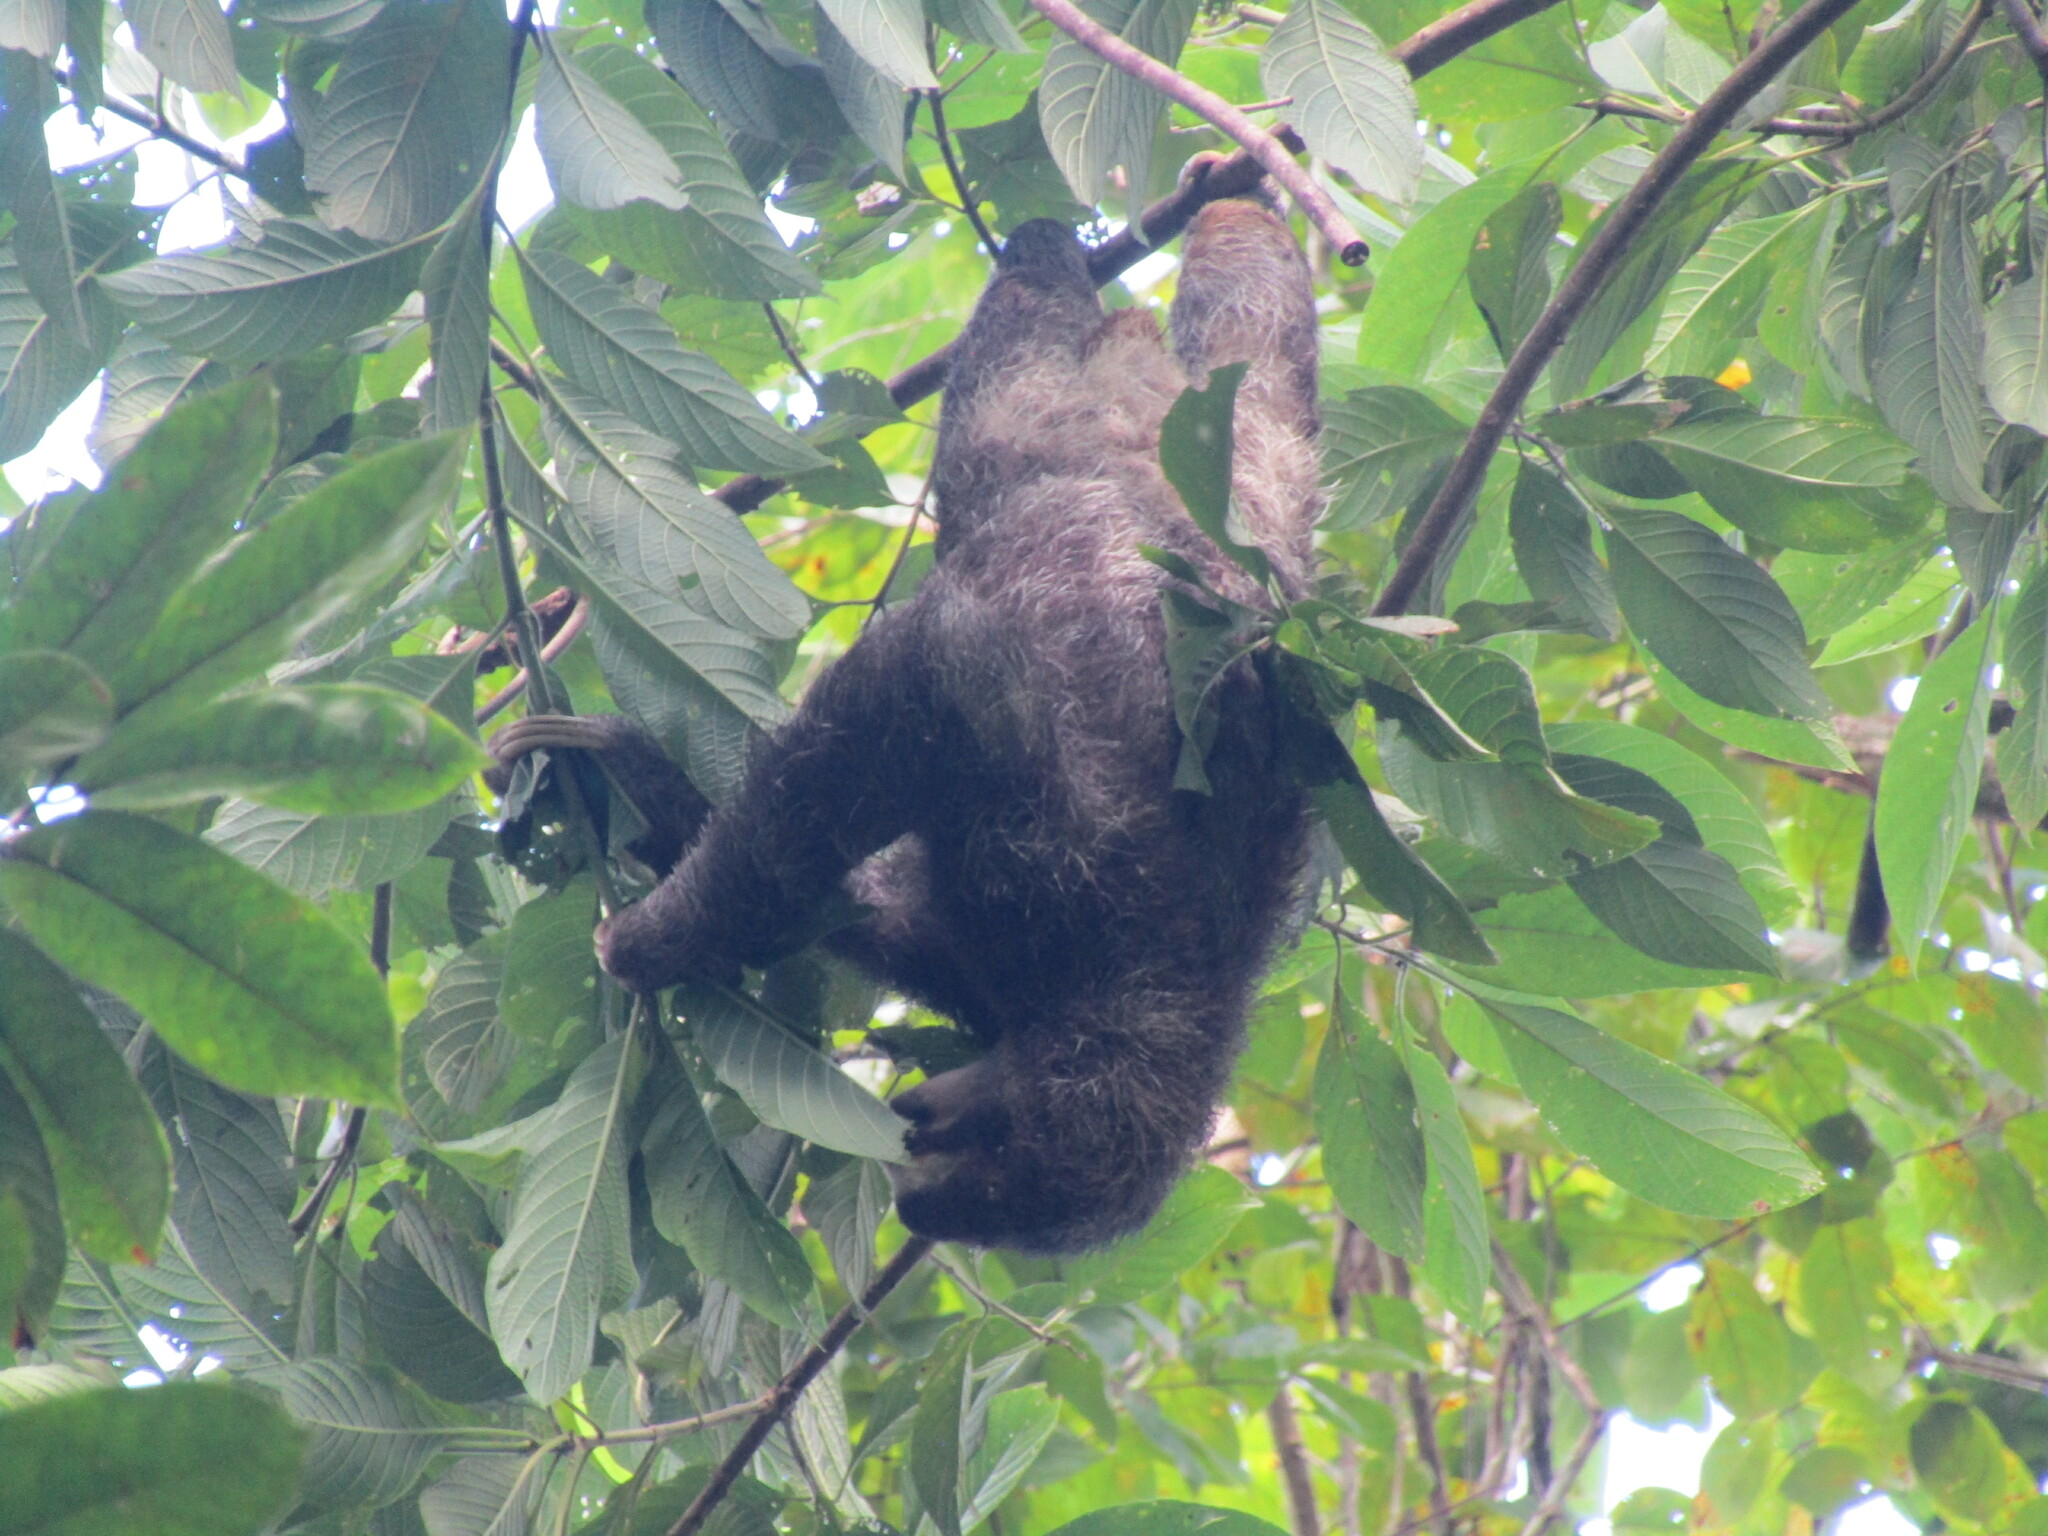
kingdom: Animalia
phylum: Chordata
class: Mammalia
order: Pilosa
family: Bradypodidae
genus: Bradypus
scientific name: Bradypus variegatus
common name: Brown-throated three-toed sloth
